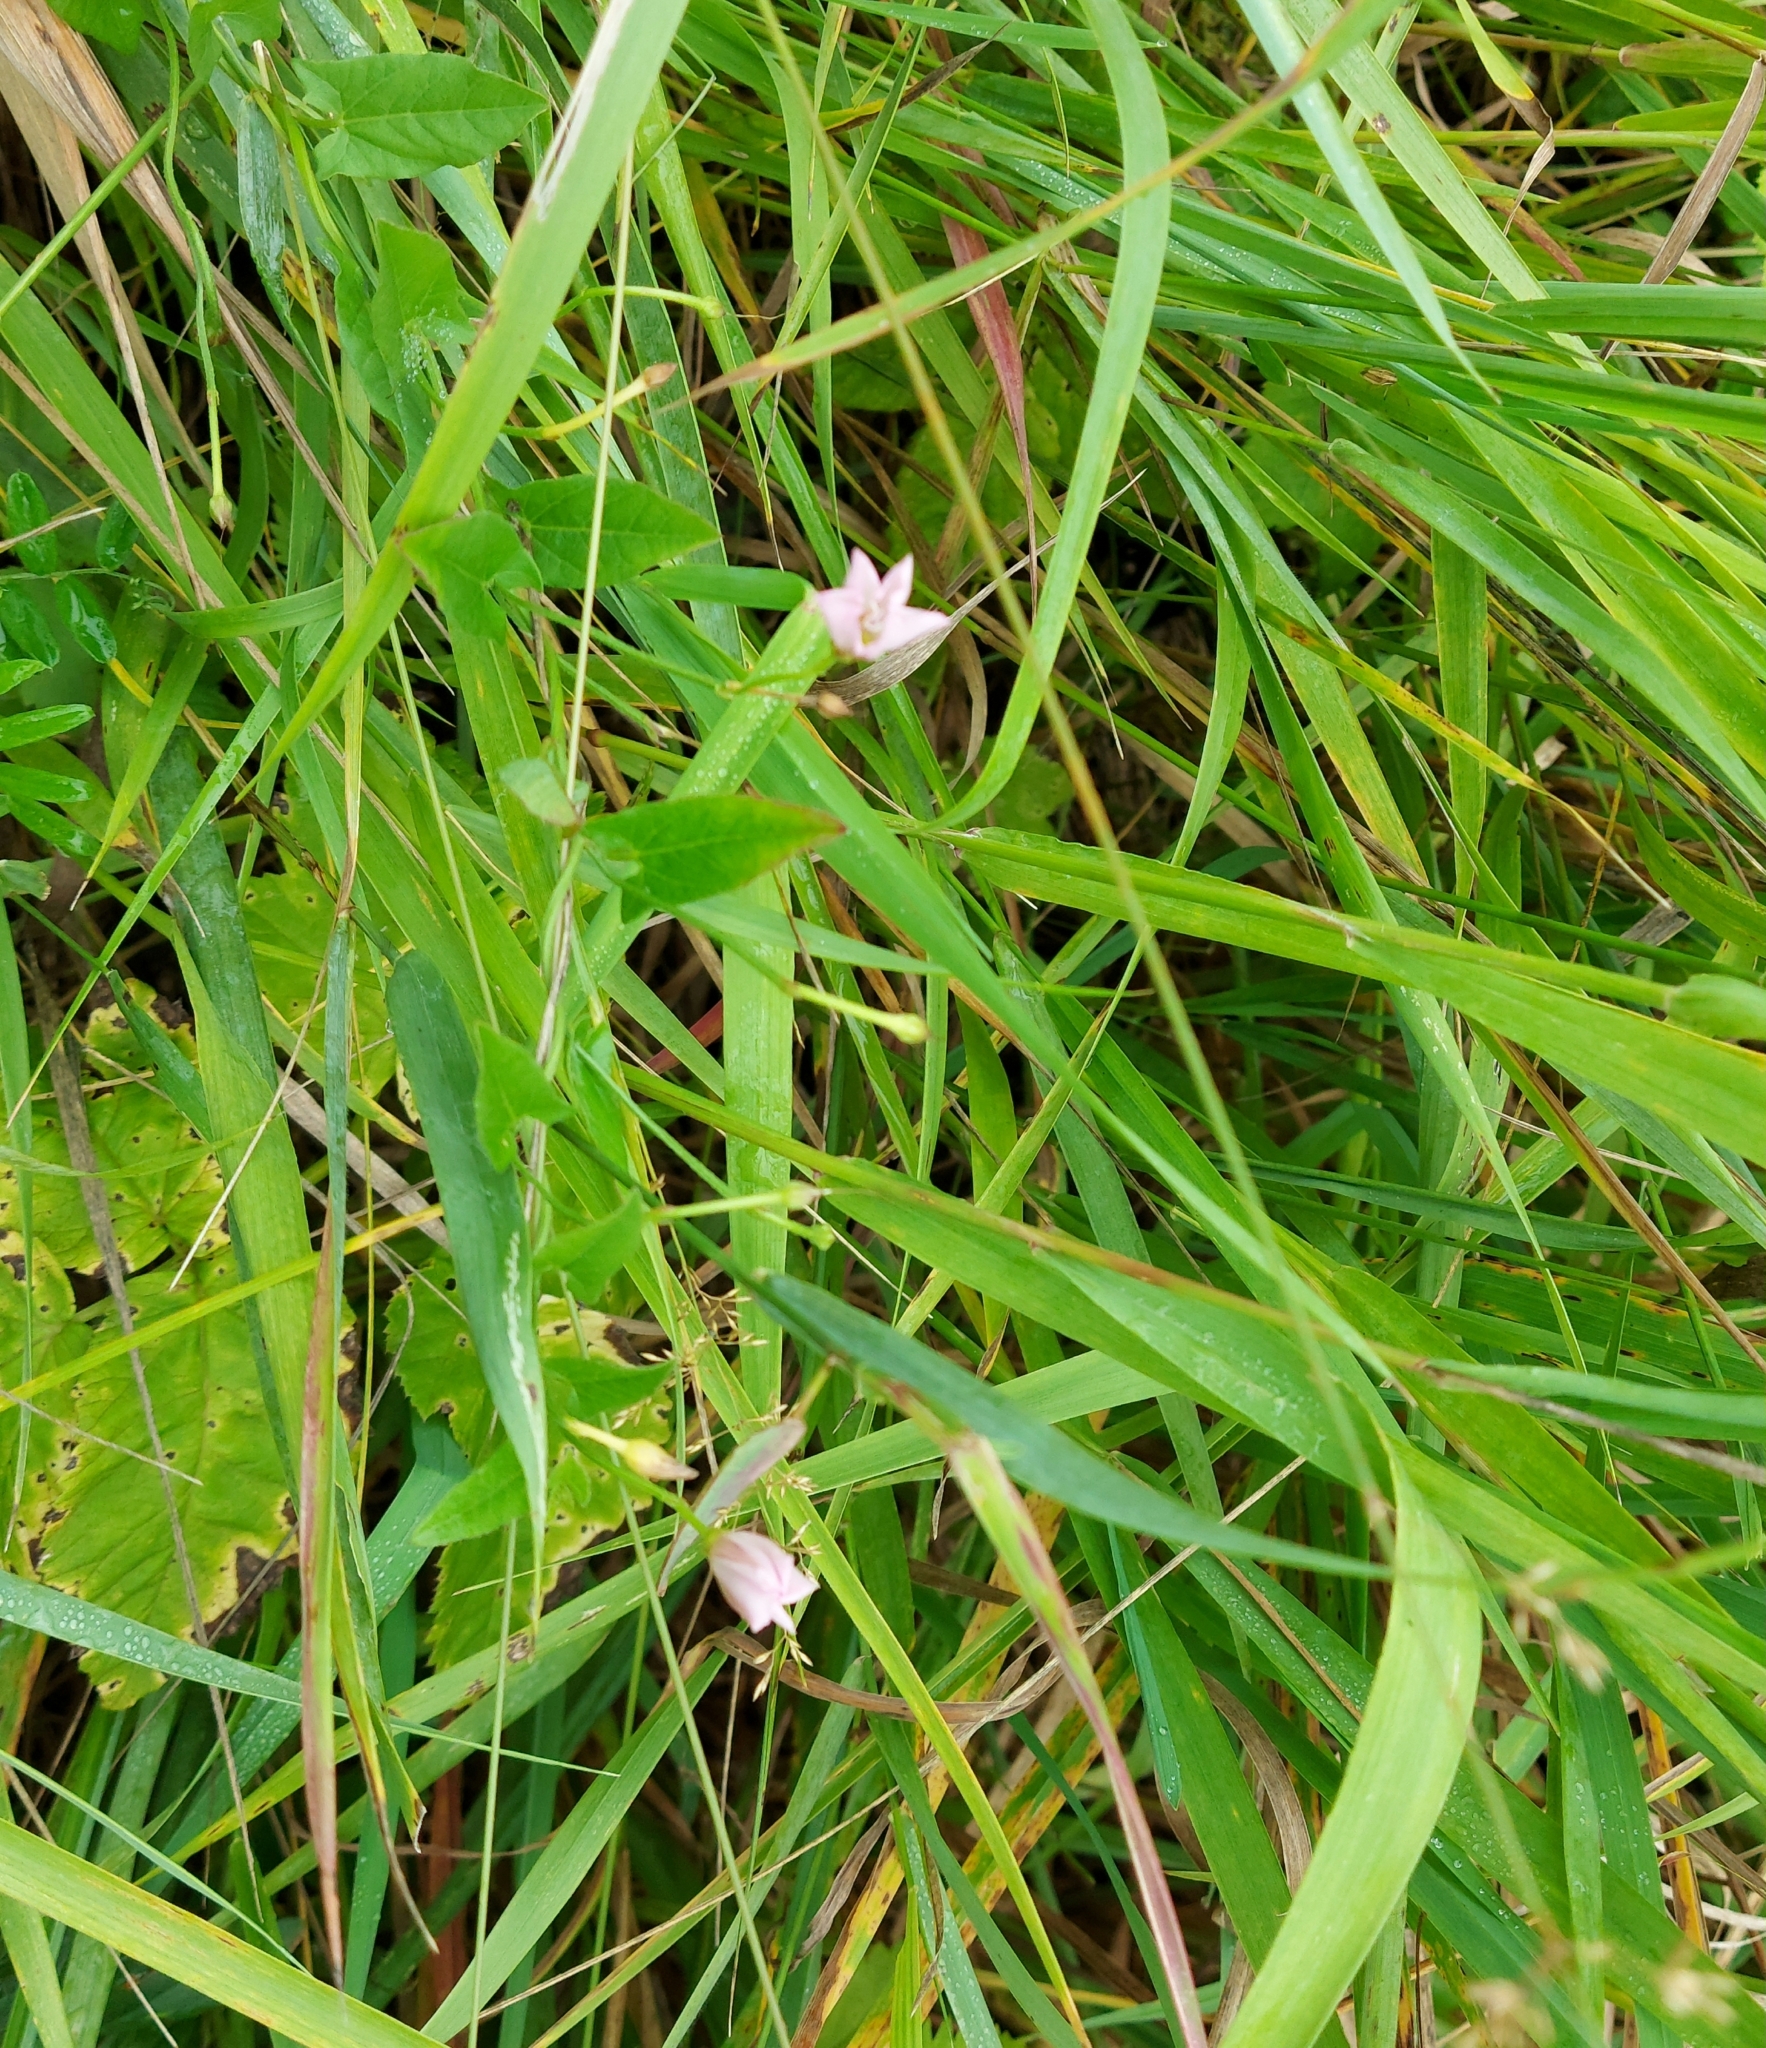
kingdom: Plantae
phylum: Tracheophyta
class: Magnoliopsida
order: Solanales
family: Convolvulaceae
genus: Convolvulus
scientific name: Convolvulus arvensis
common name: Field bindweed
